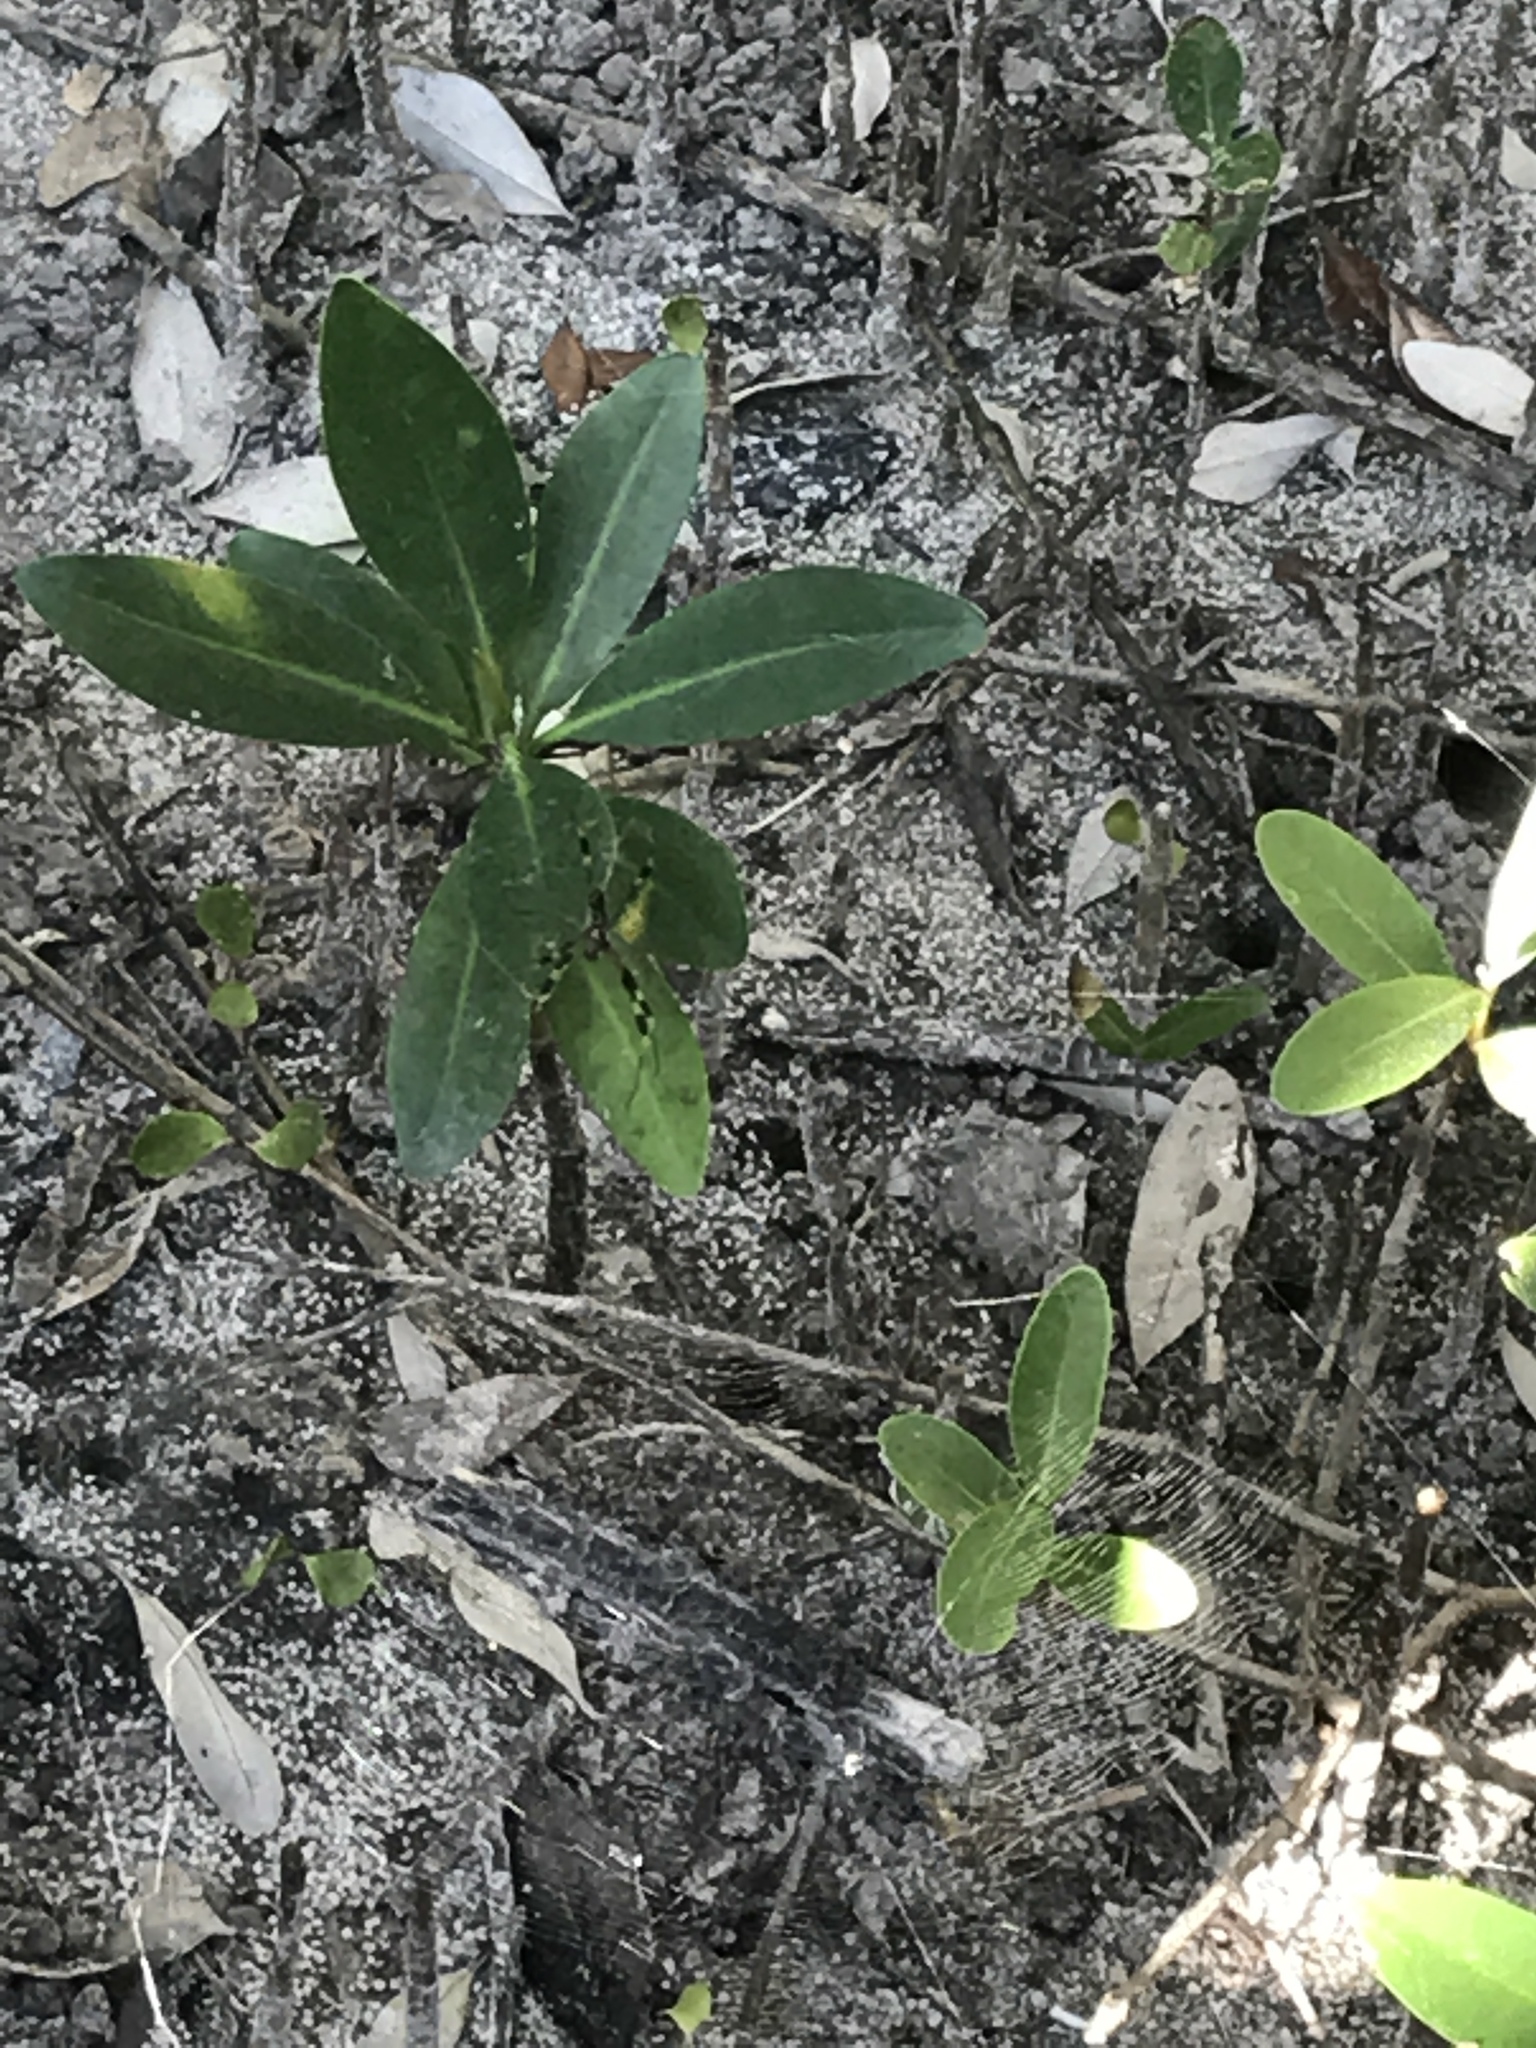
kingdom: Animalia
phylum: Arthropoda
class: Arachnida
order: Araneae
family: Araneidae
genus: Trichonephila
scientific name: Trichonephila clavipes
